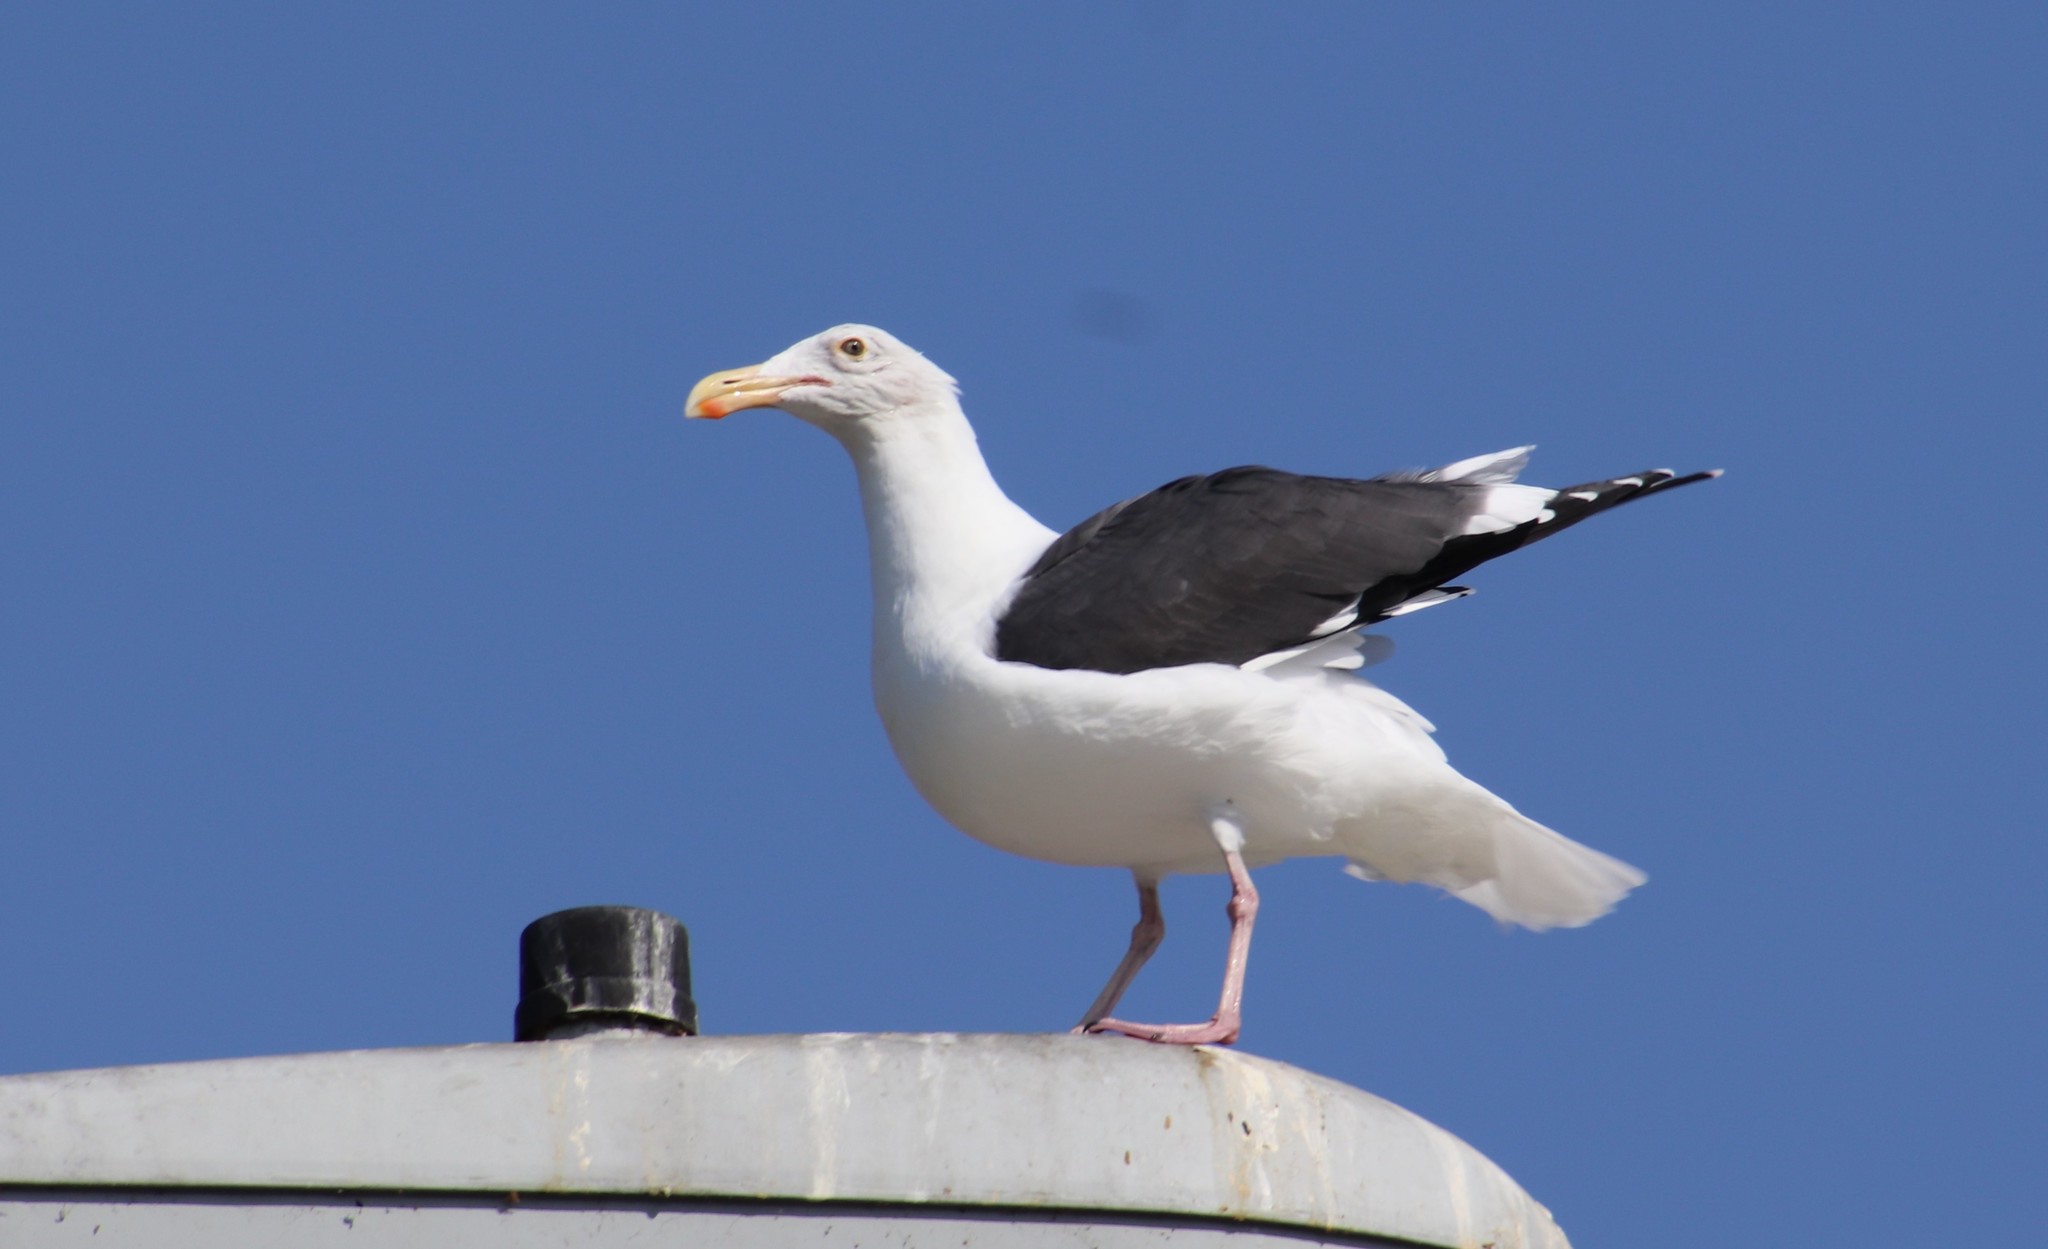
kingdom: Animalia
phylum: Chordata
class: Aves
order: Charadriiformes
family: Laridae
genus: Larus
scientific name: Larus occidentalis
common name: Western gull
